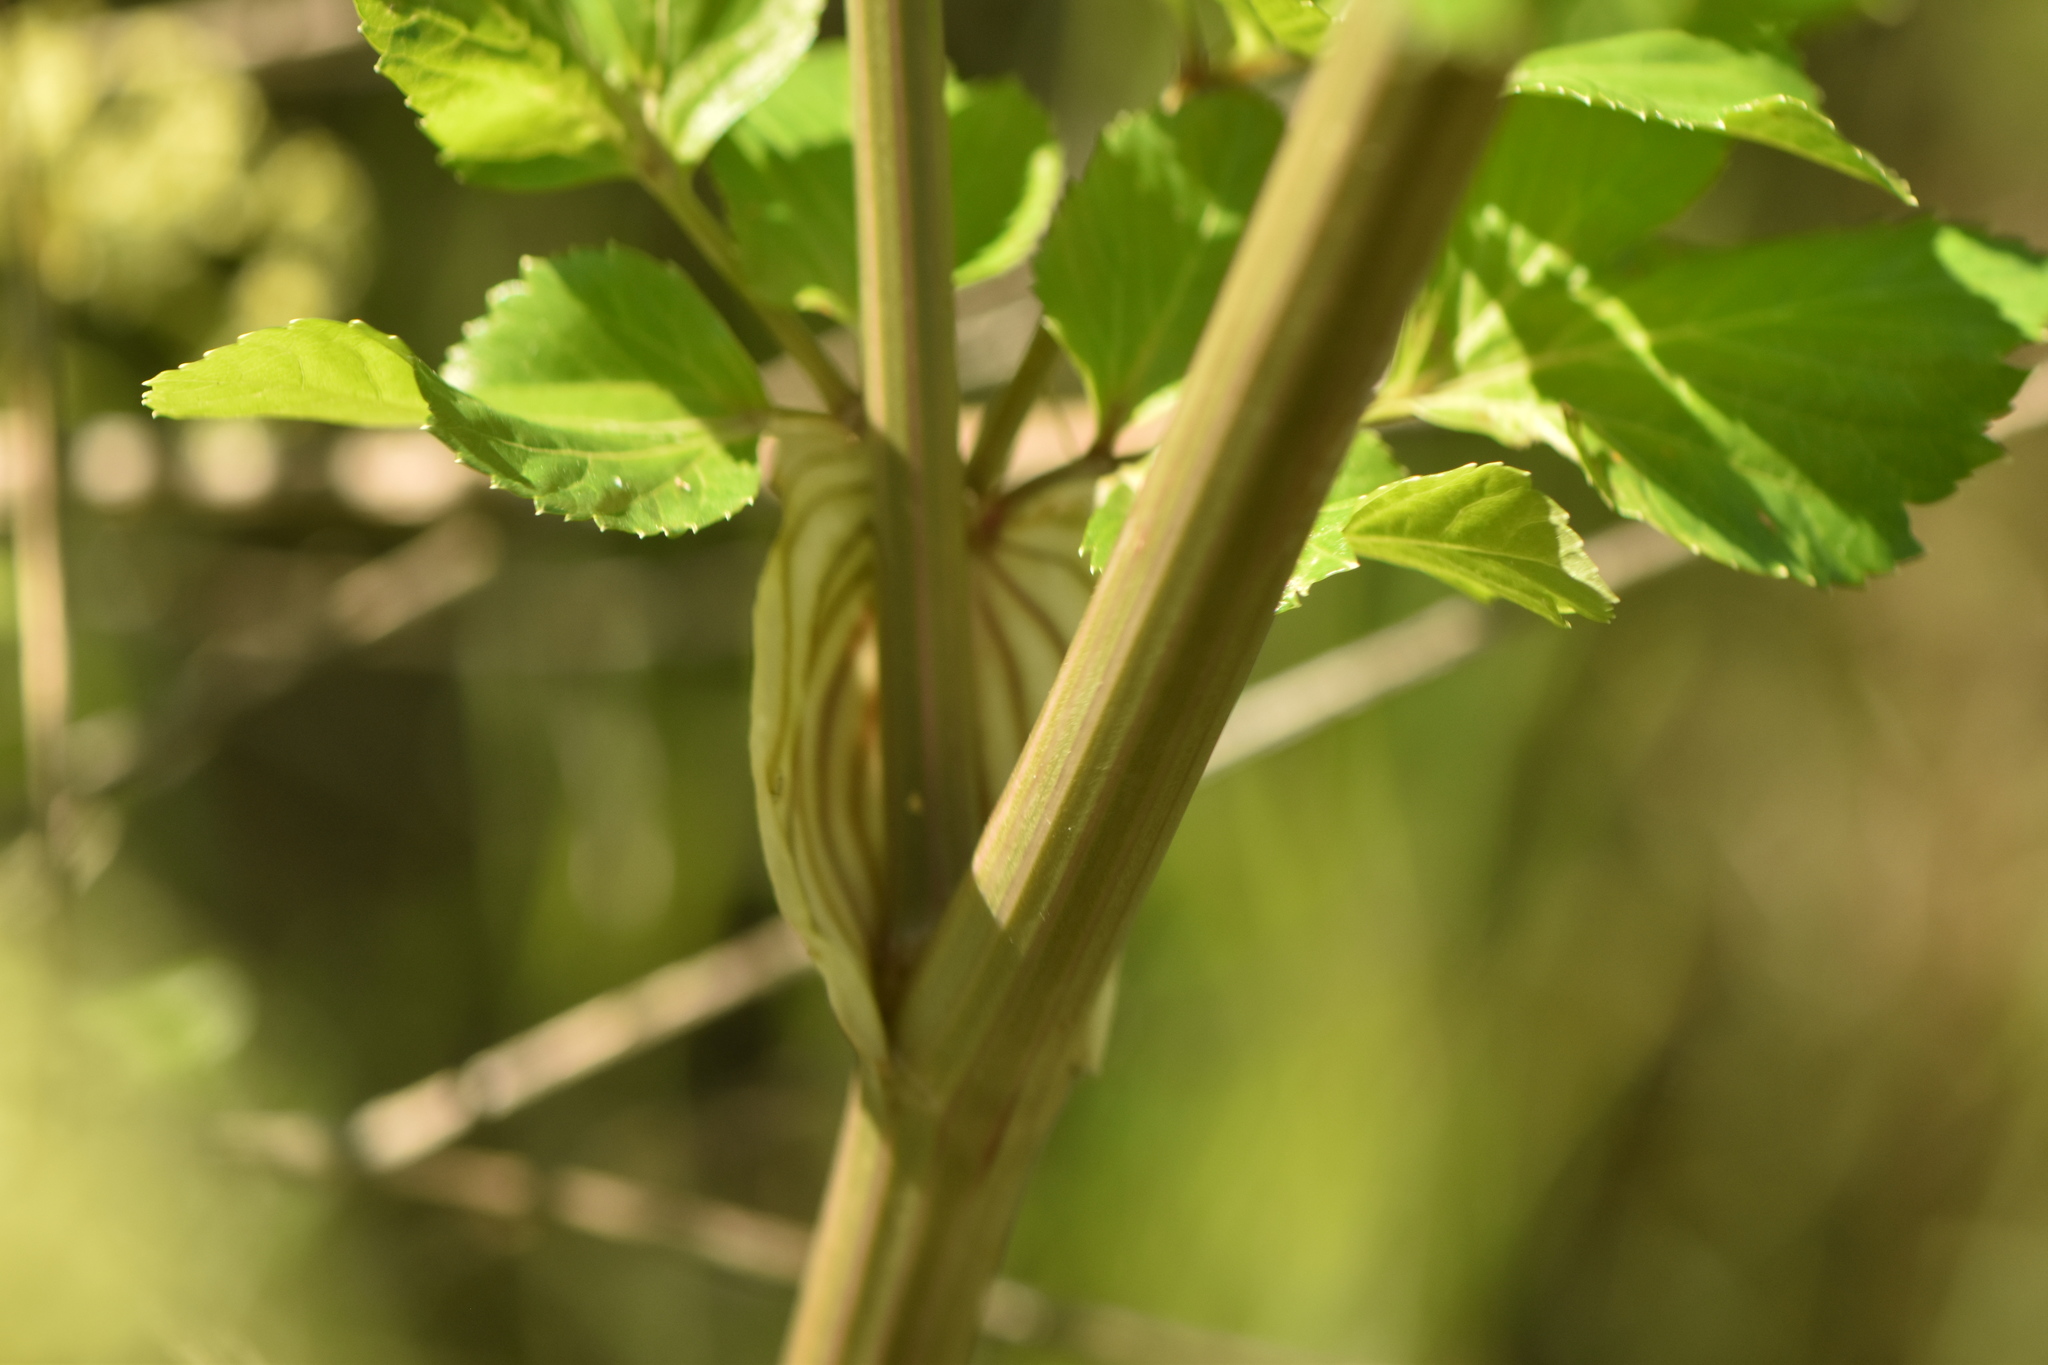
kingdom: Plantae
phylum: Tracheophyta
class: Magnoliopsida
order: Apiales
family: Apiaceae
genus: Smyrnium
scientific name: Smyrnium olusatrum
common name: Alexanders
